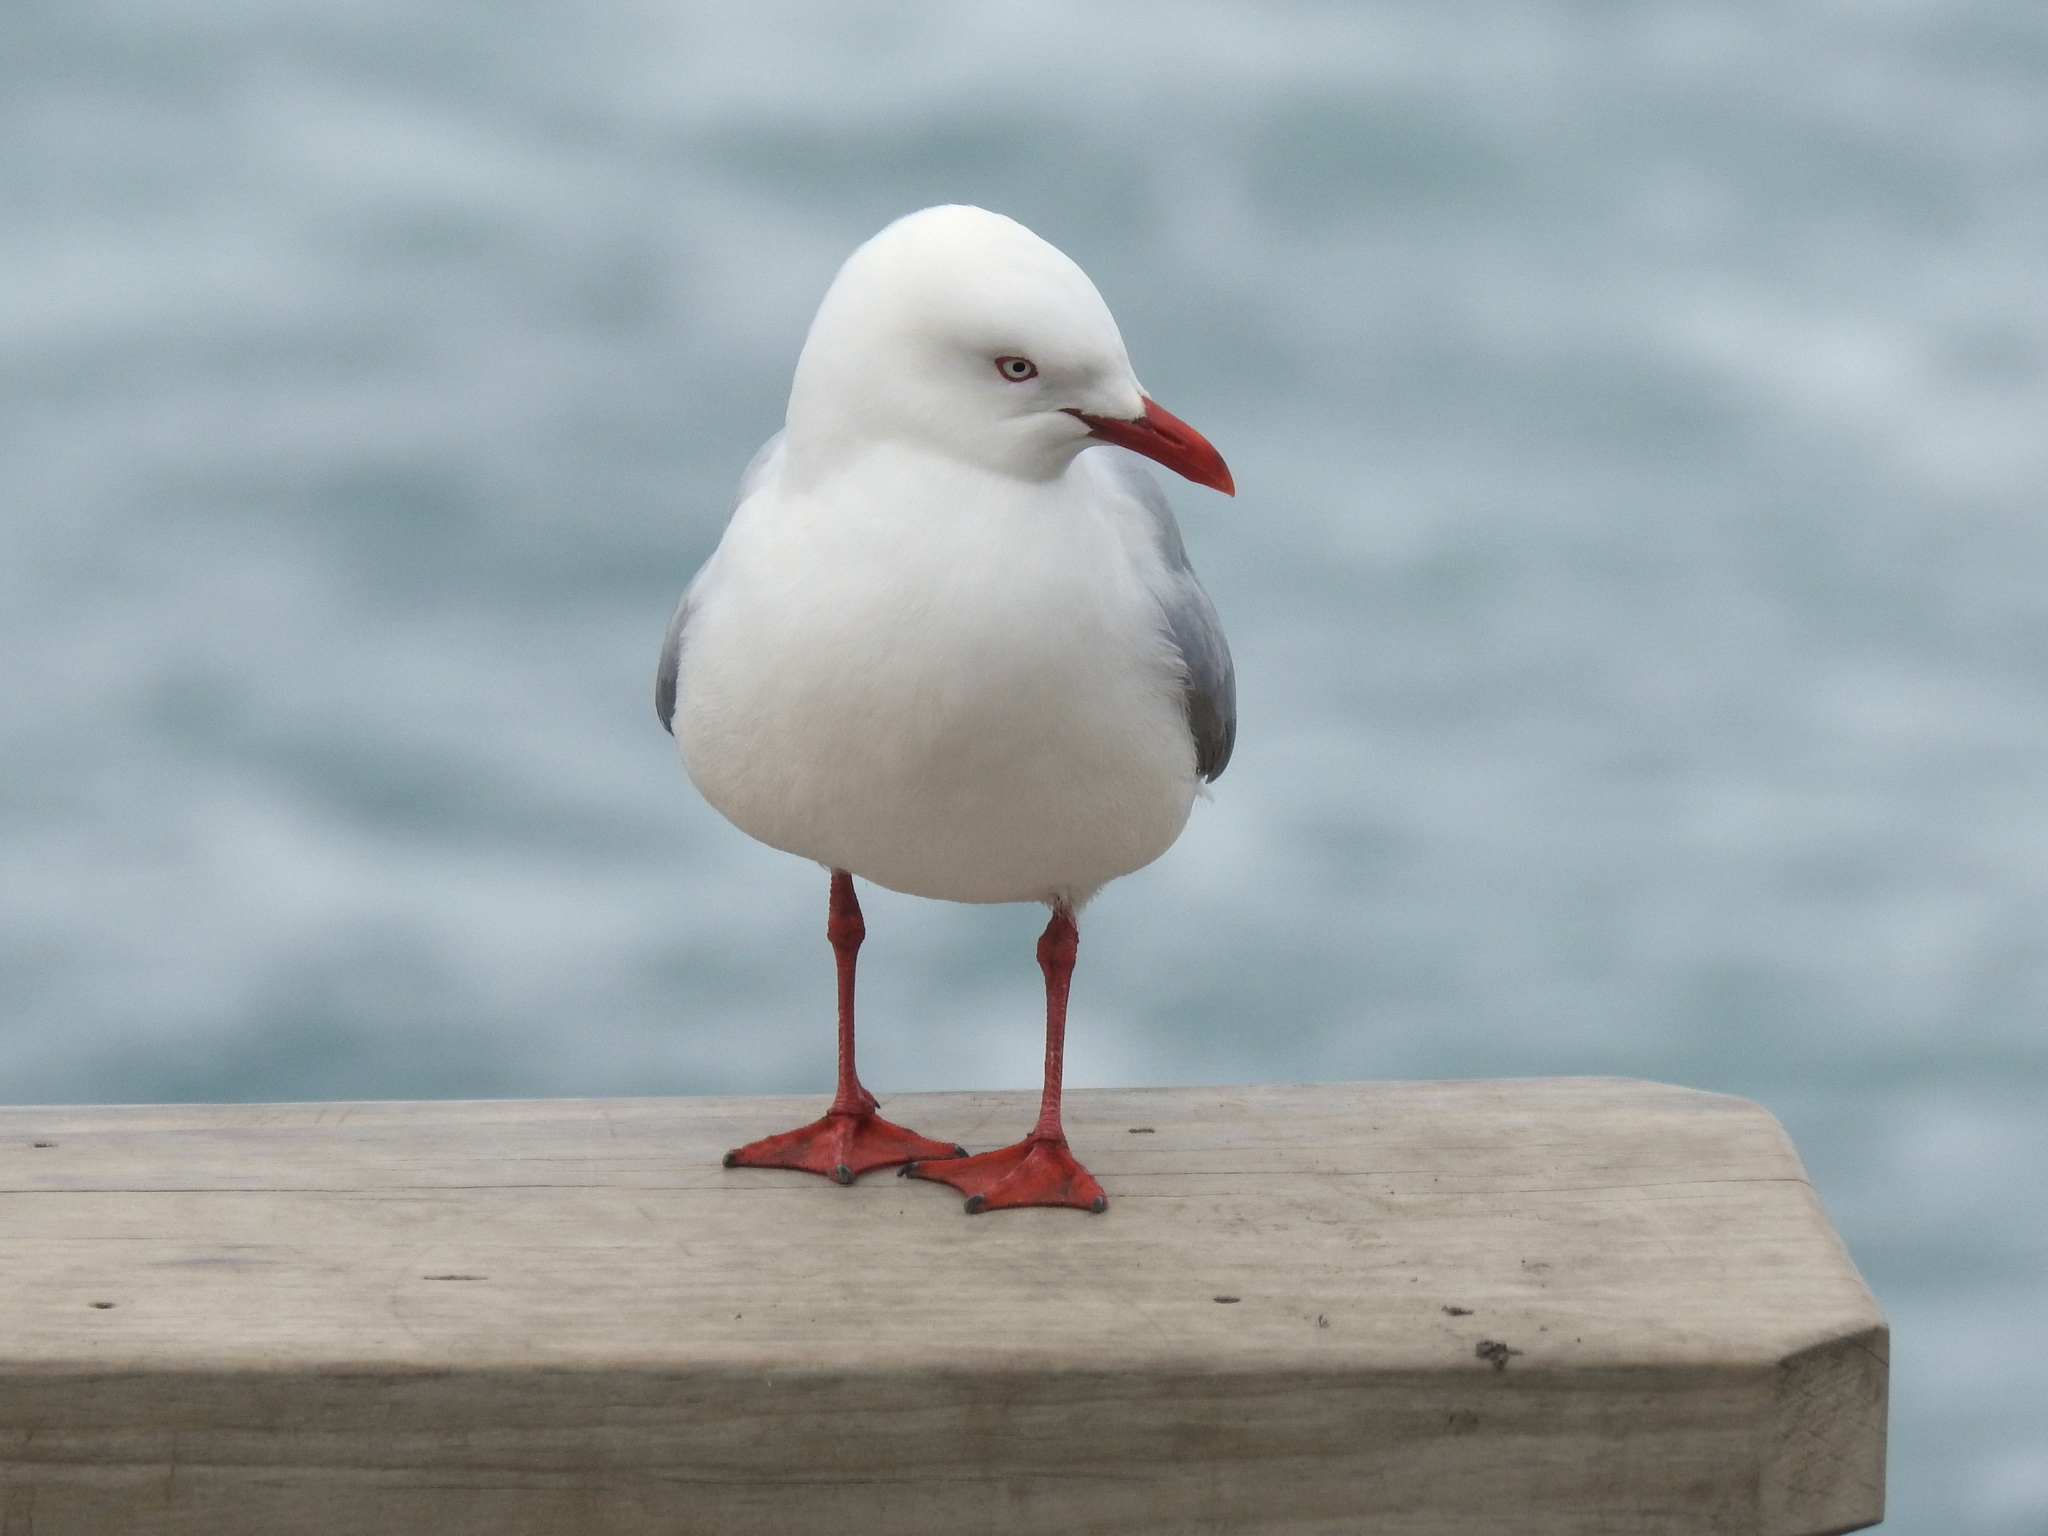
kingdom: Animalia
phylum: Chordata
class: Aves
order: Charadriiformes
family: Laridae
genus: Chroicocephalus
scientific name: Chroicocephalus novaehollandiae
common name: Silver gull
